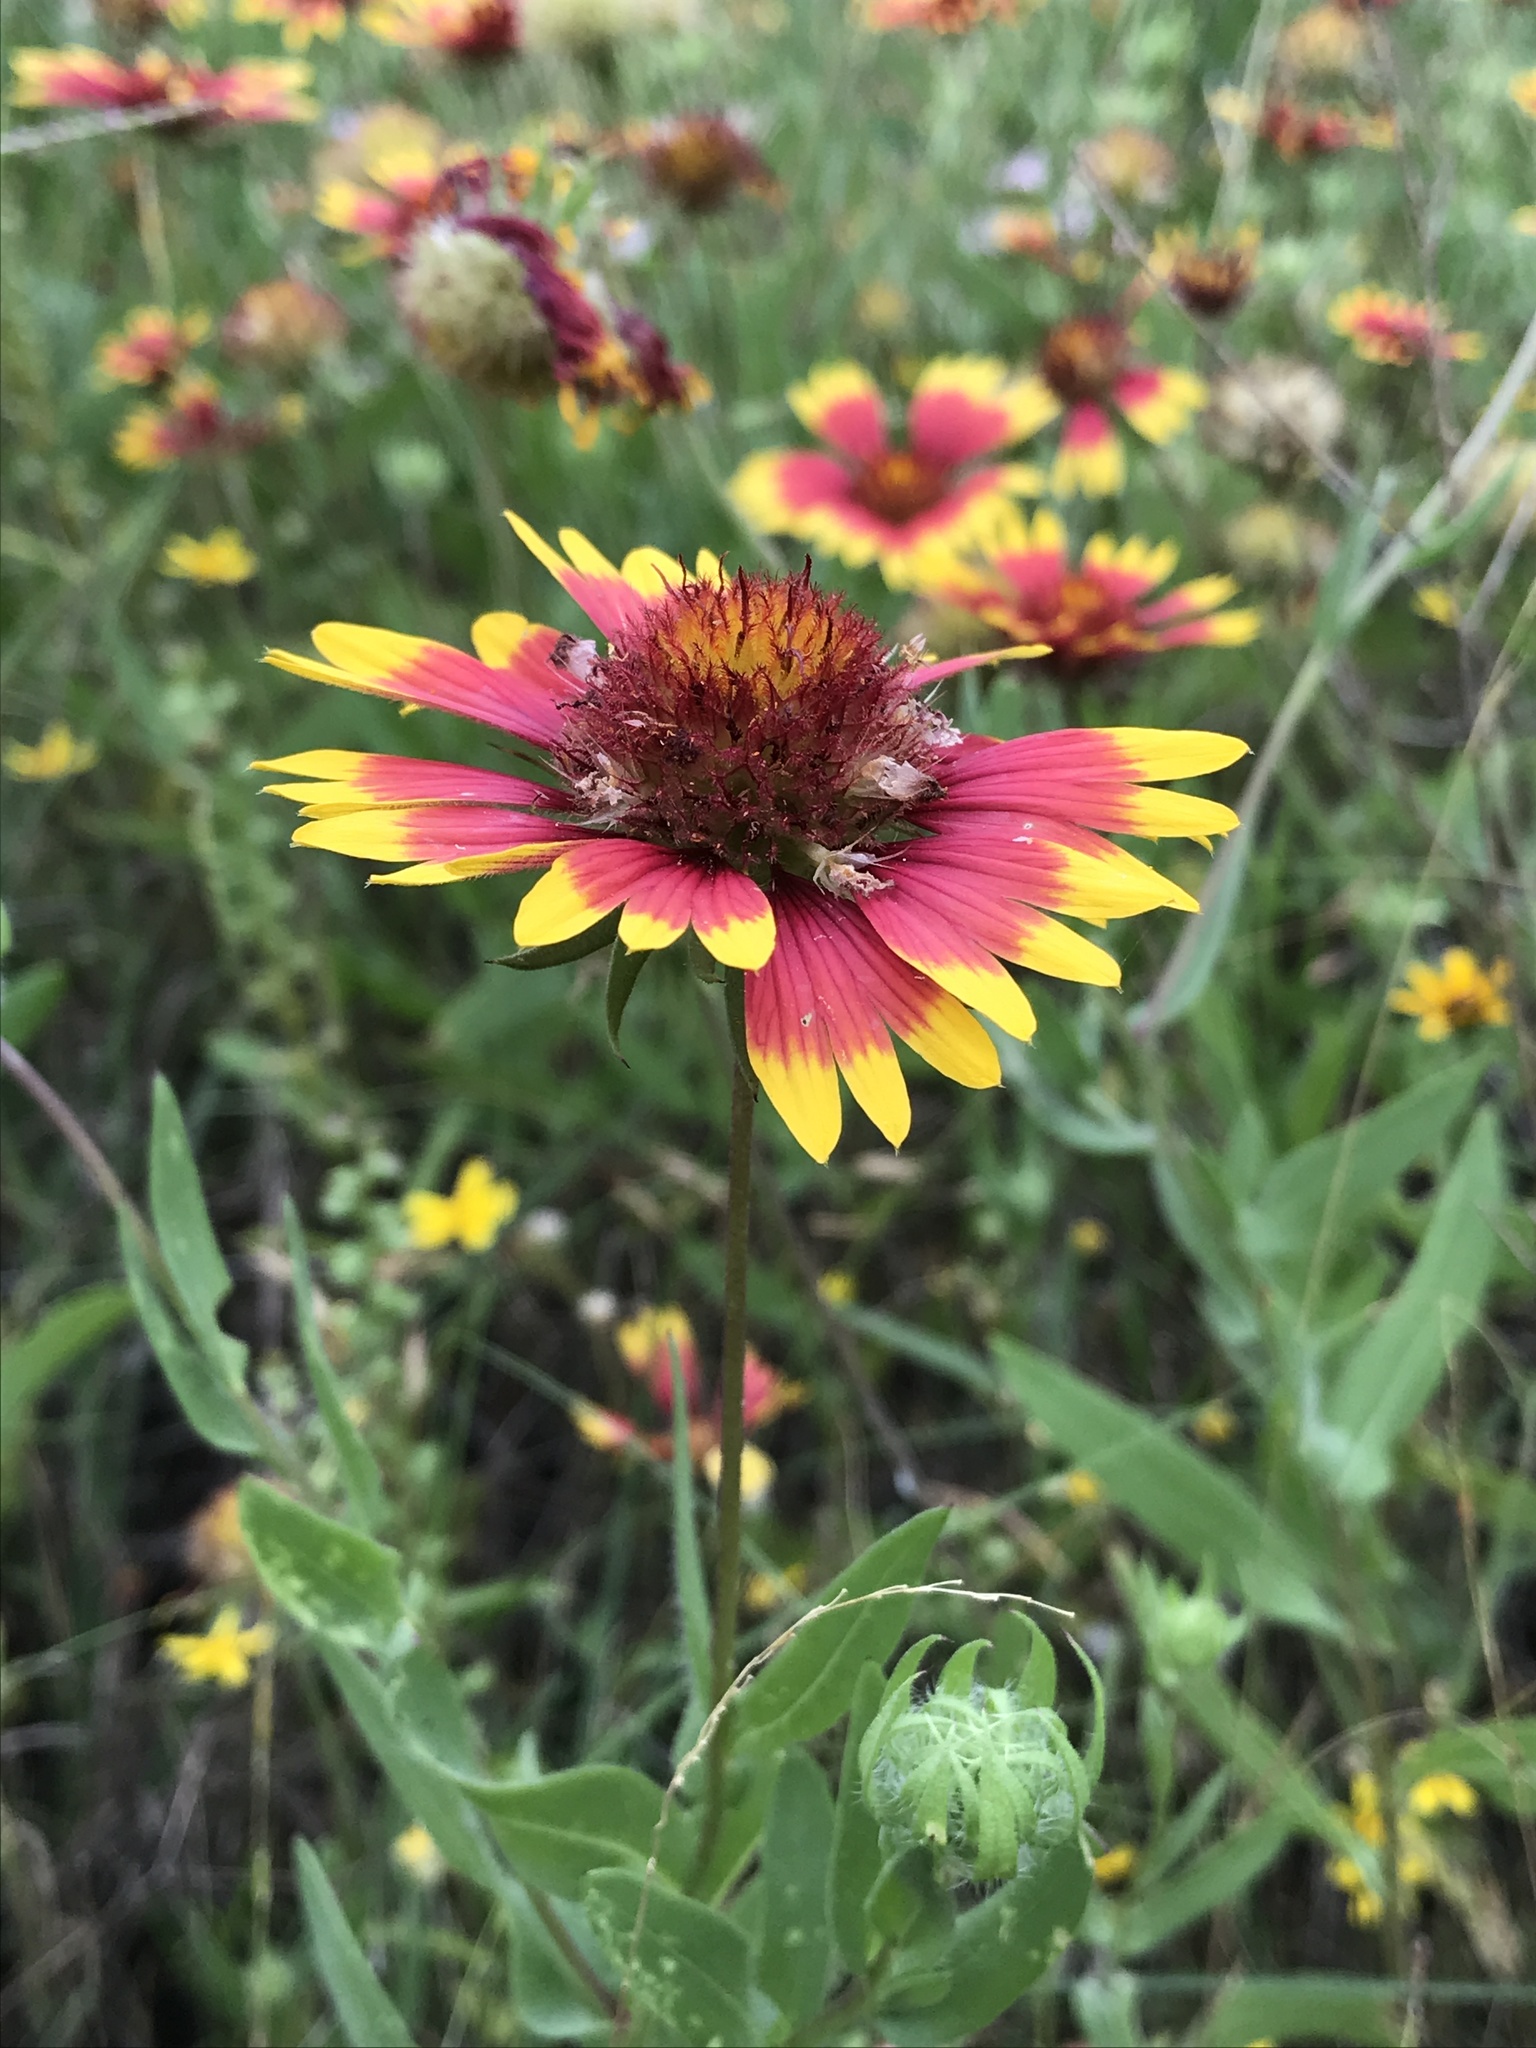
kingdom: Plantae
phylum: Tracheophyta
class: Magnoliopsida
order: Asterales
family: Asteraceae
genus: Gaillardia
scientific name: Gaillardia pulchella
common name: Firewheel
